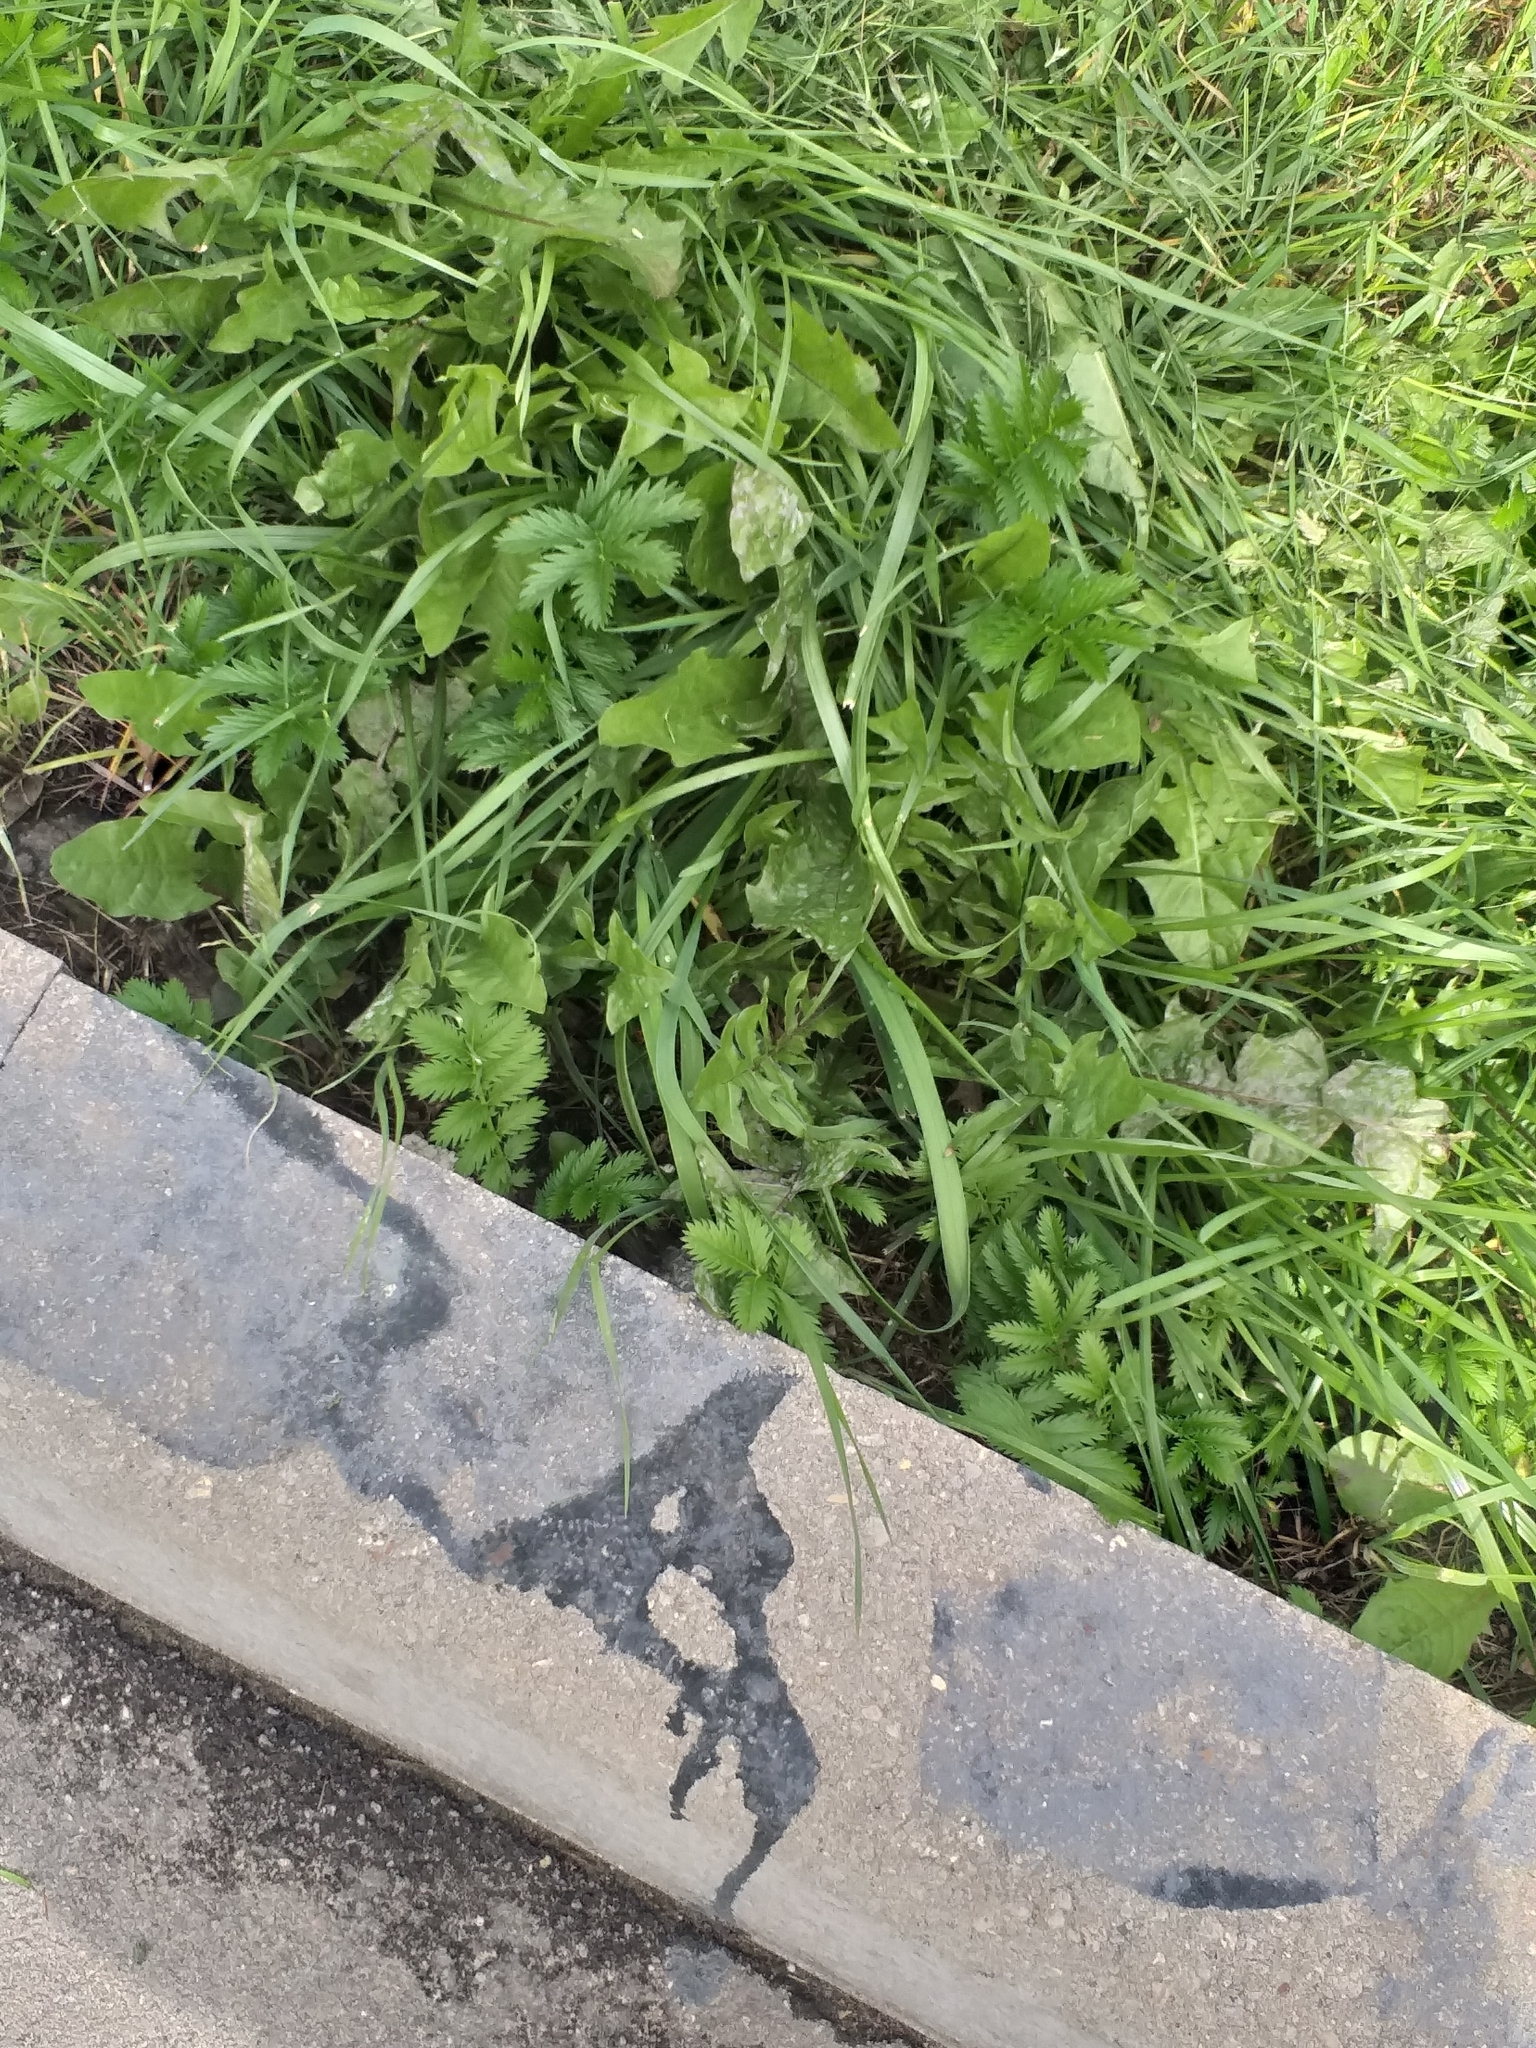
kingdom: Plantae
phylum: Tracheophyta
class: Magnoliopsida
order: Rosales
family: Rosaceae
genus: Argentina
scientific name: Argentina anserina
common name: Common silverweed
